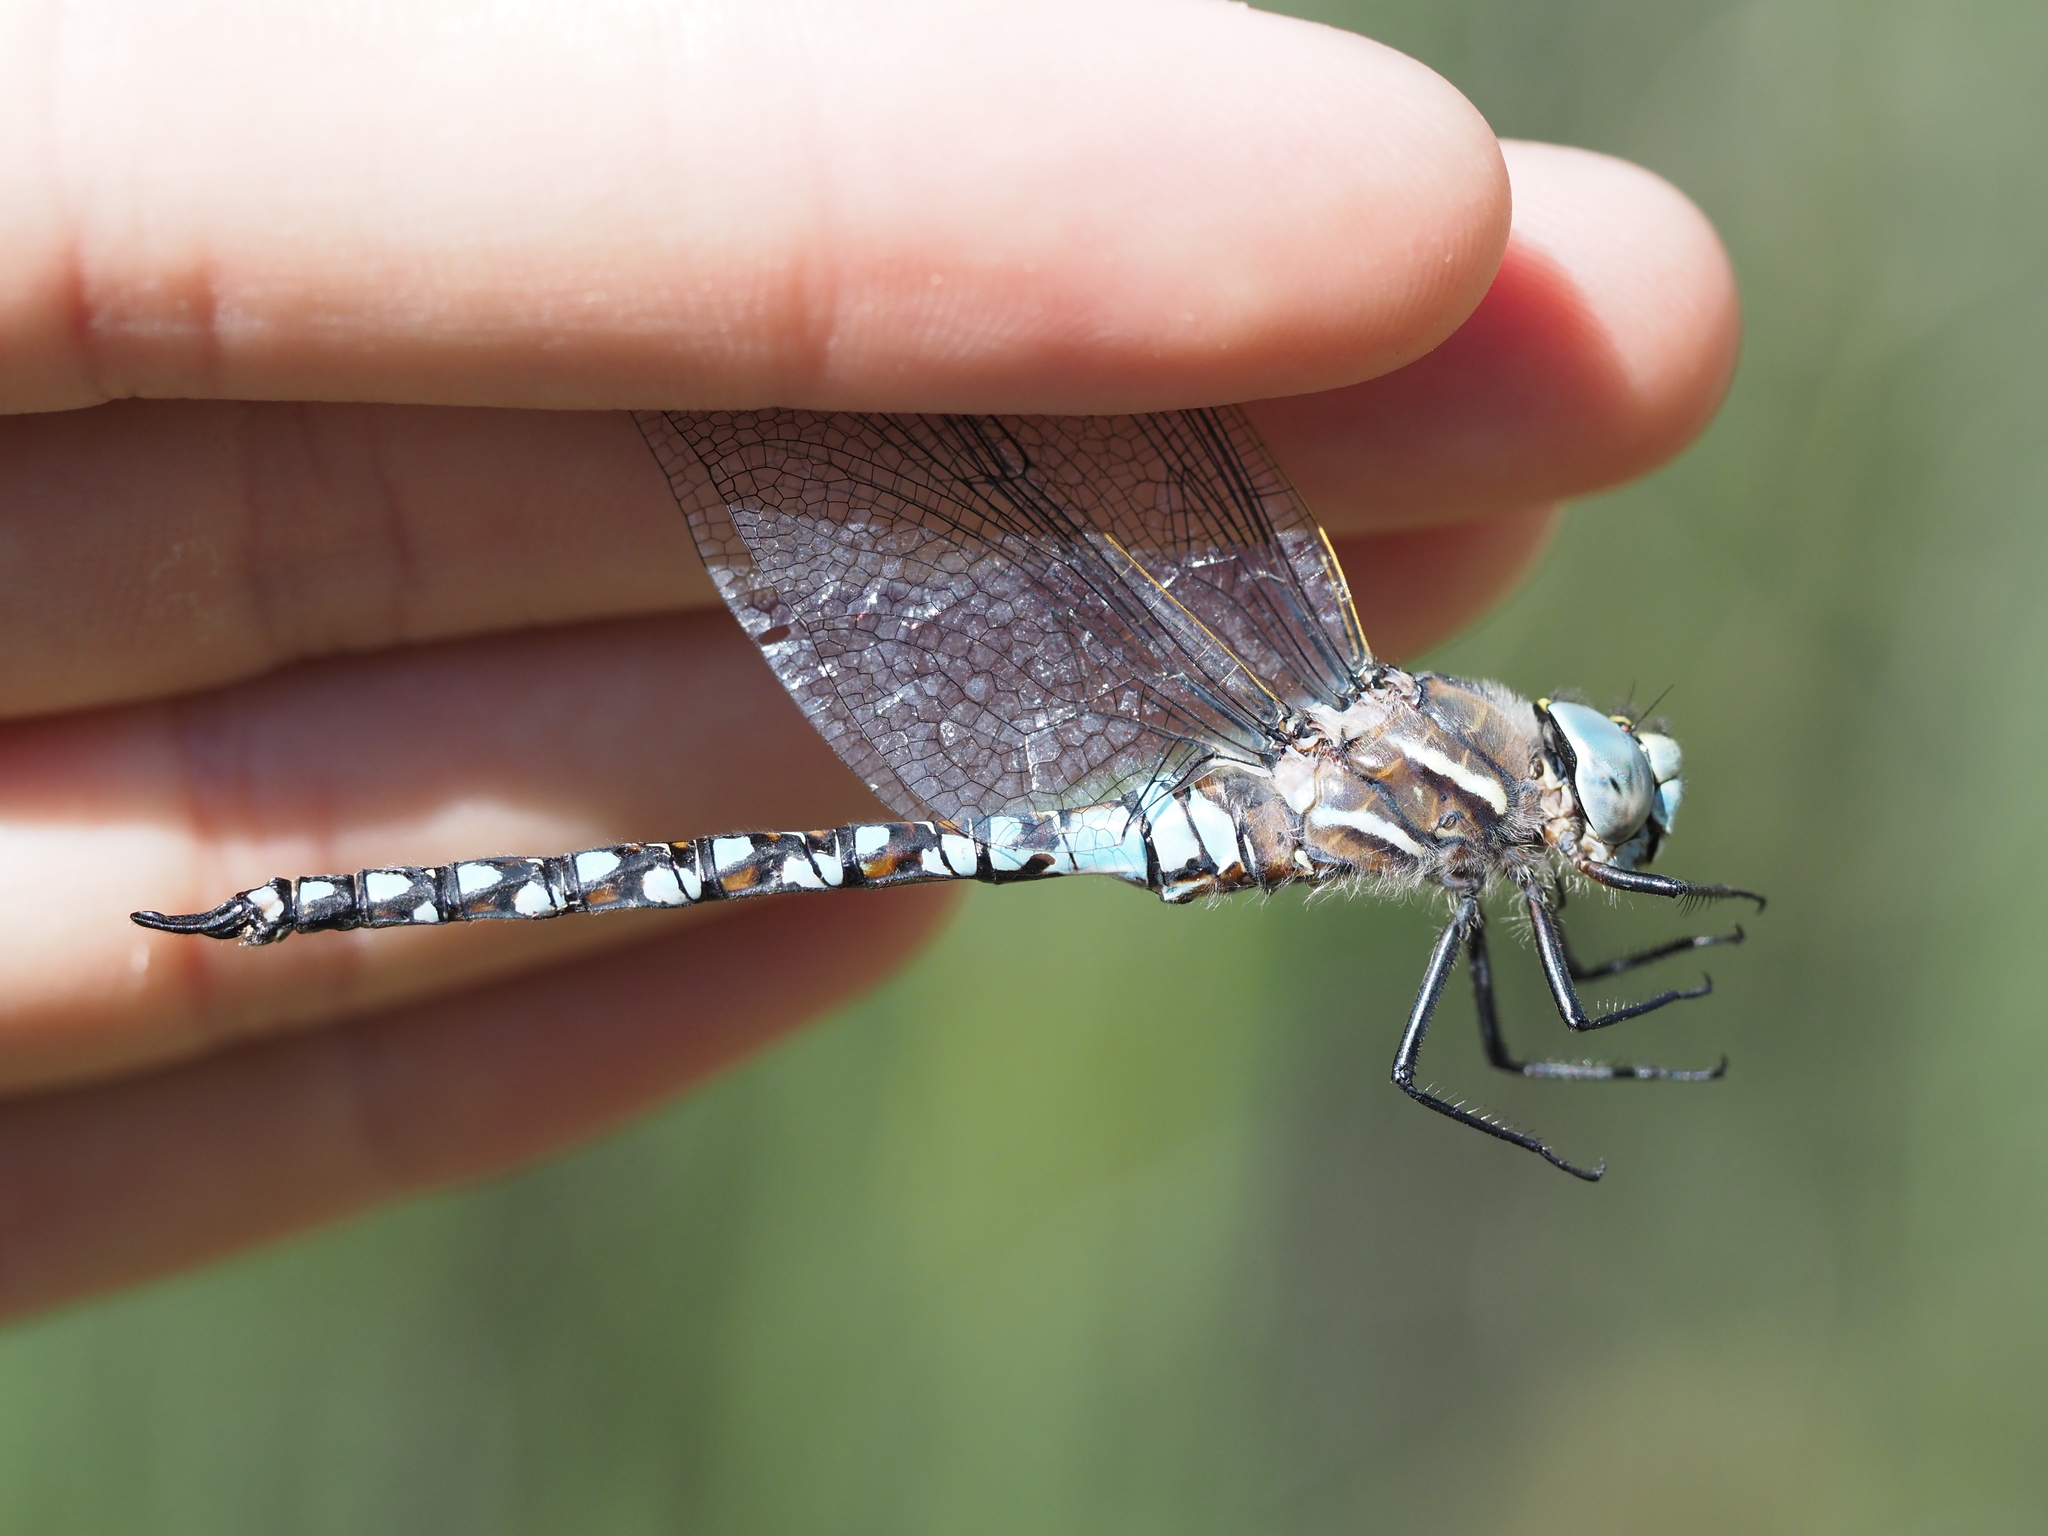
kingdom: Animalia
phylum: Arthropoda
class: Insecta
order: Odonata
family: Aeshnidae
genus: Rhionaeschna
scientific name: Rhionaeschna californica
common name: California darner
